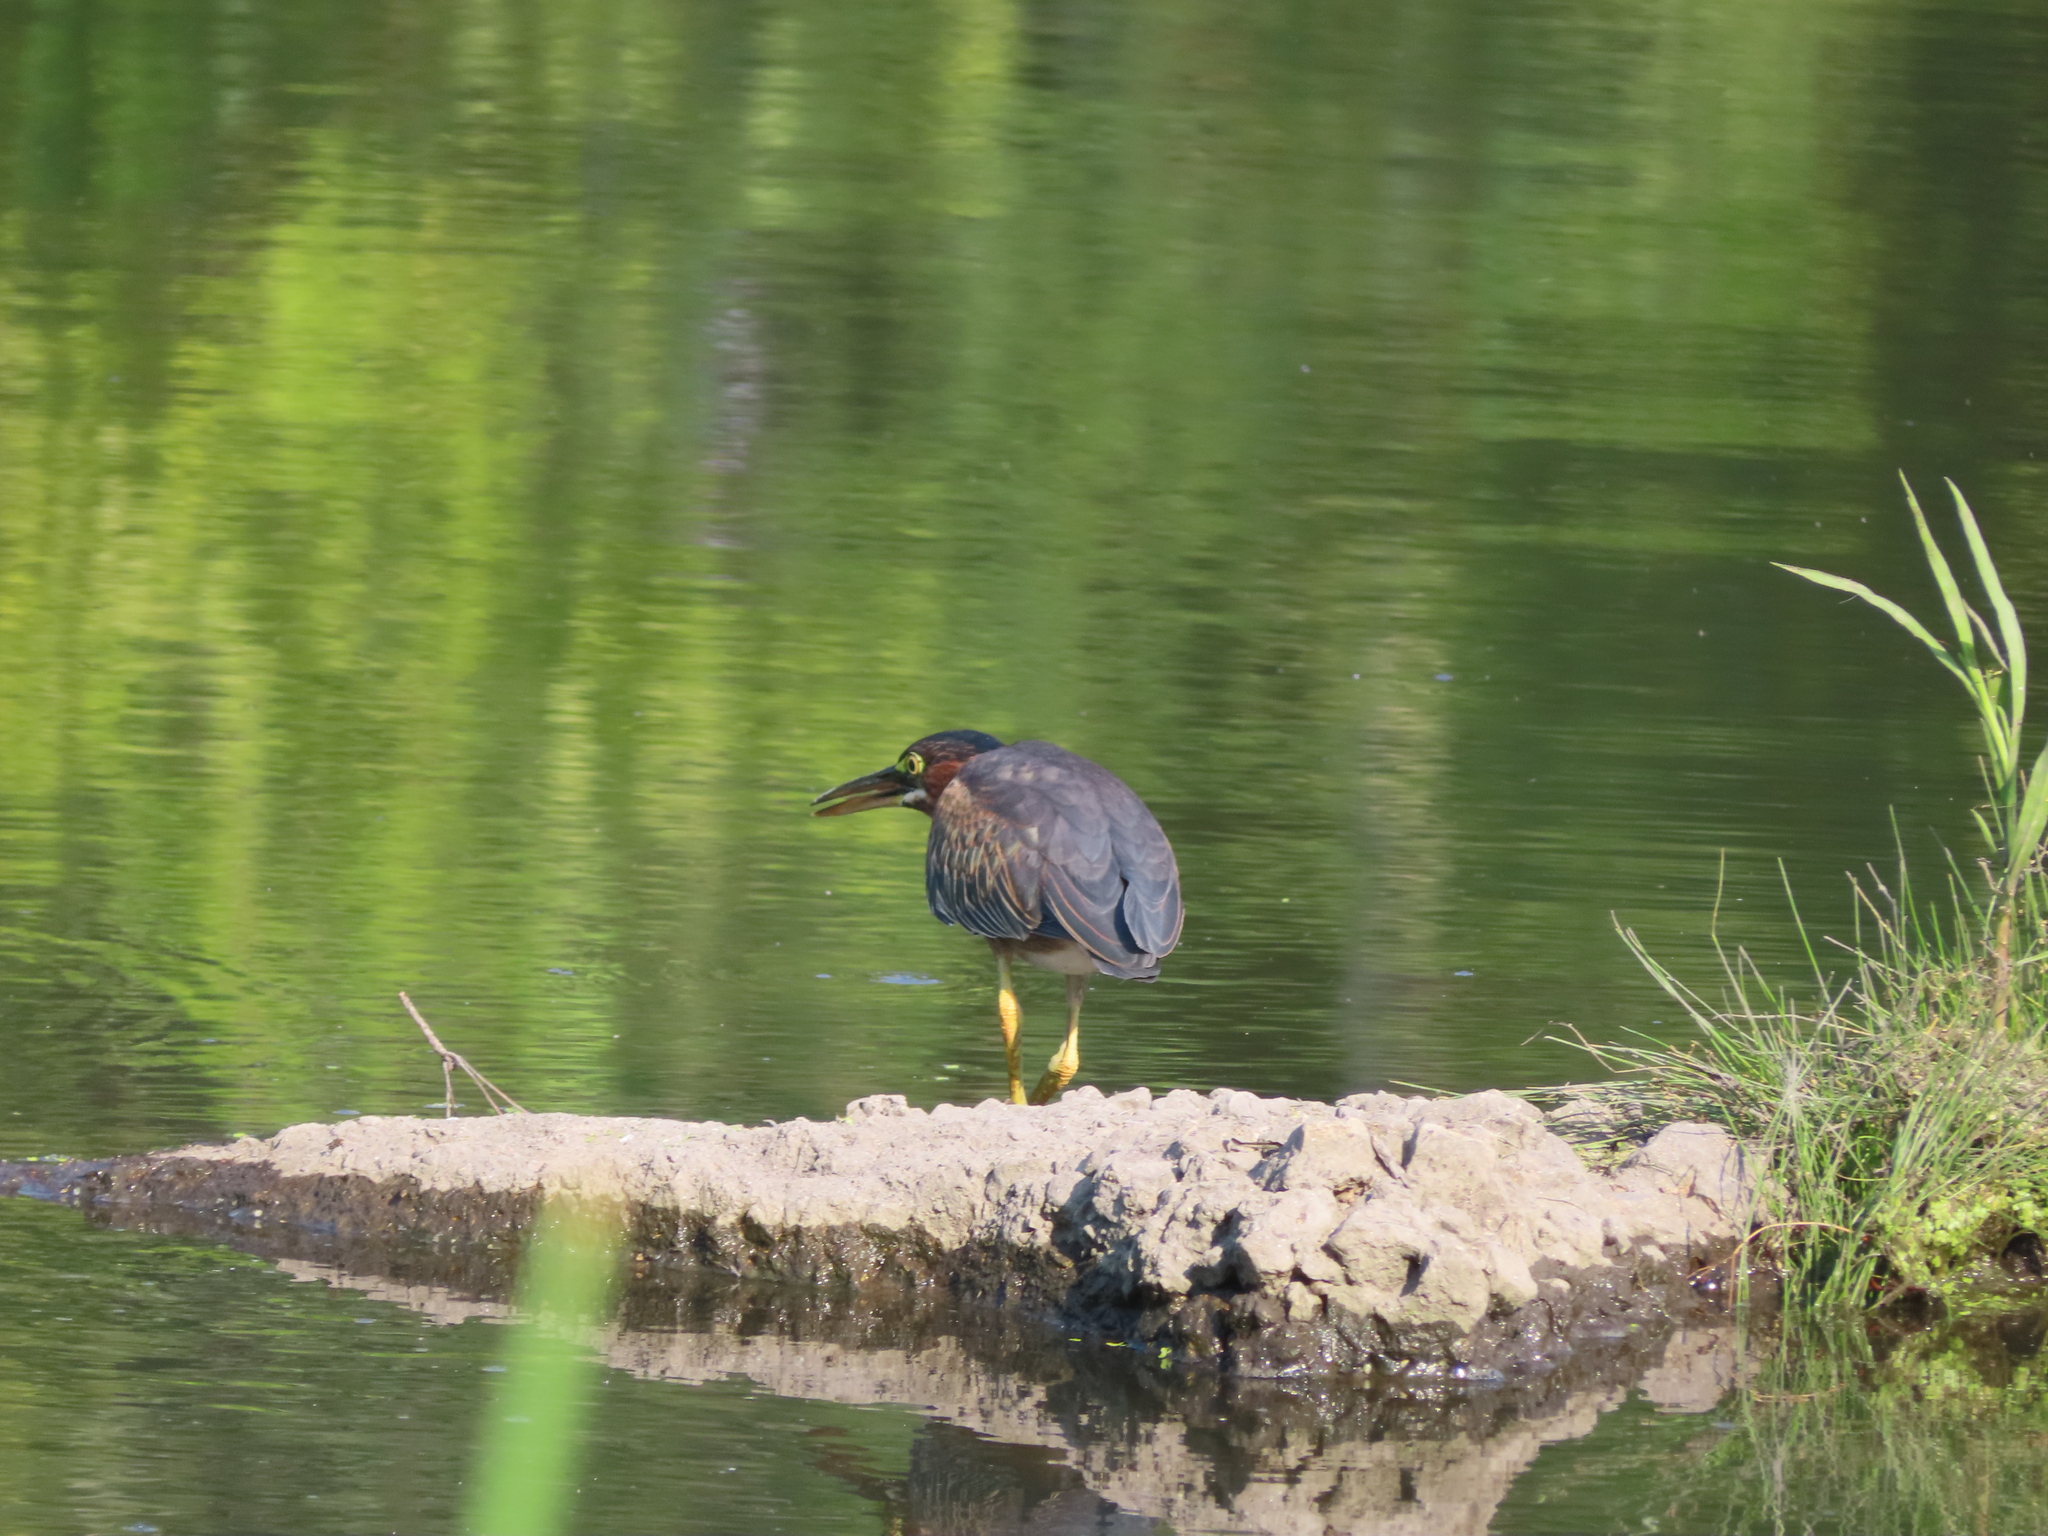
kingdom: Animalia
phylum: Chordata
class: Aves
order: Pelecaniformes
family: Ardeidae
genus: Butorides
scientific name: Butorides virescens
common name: Green heron
